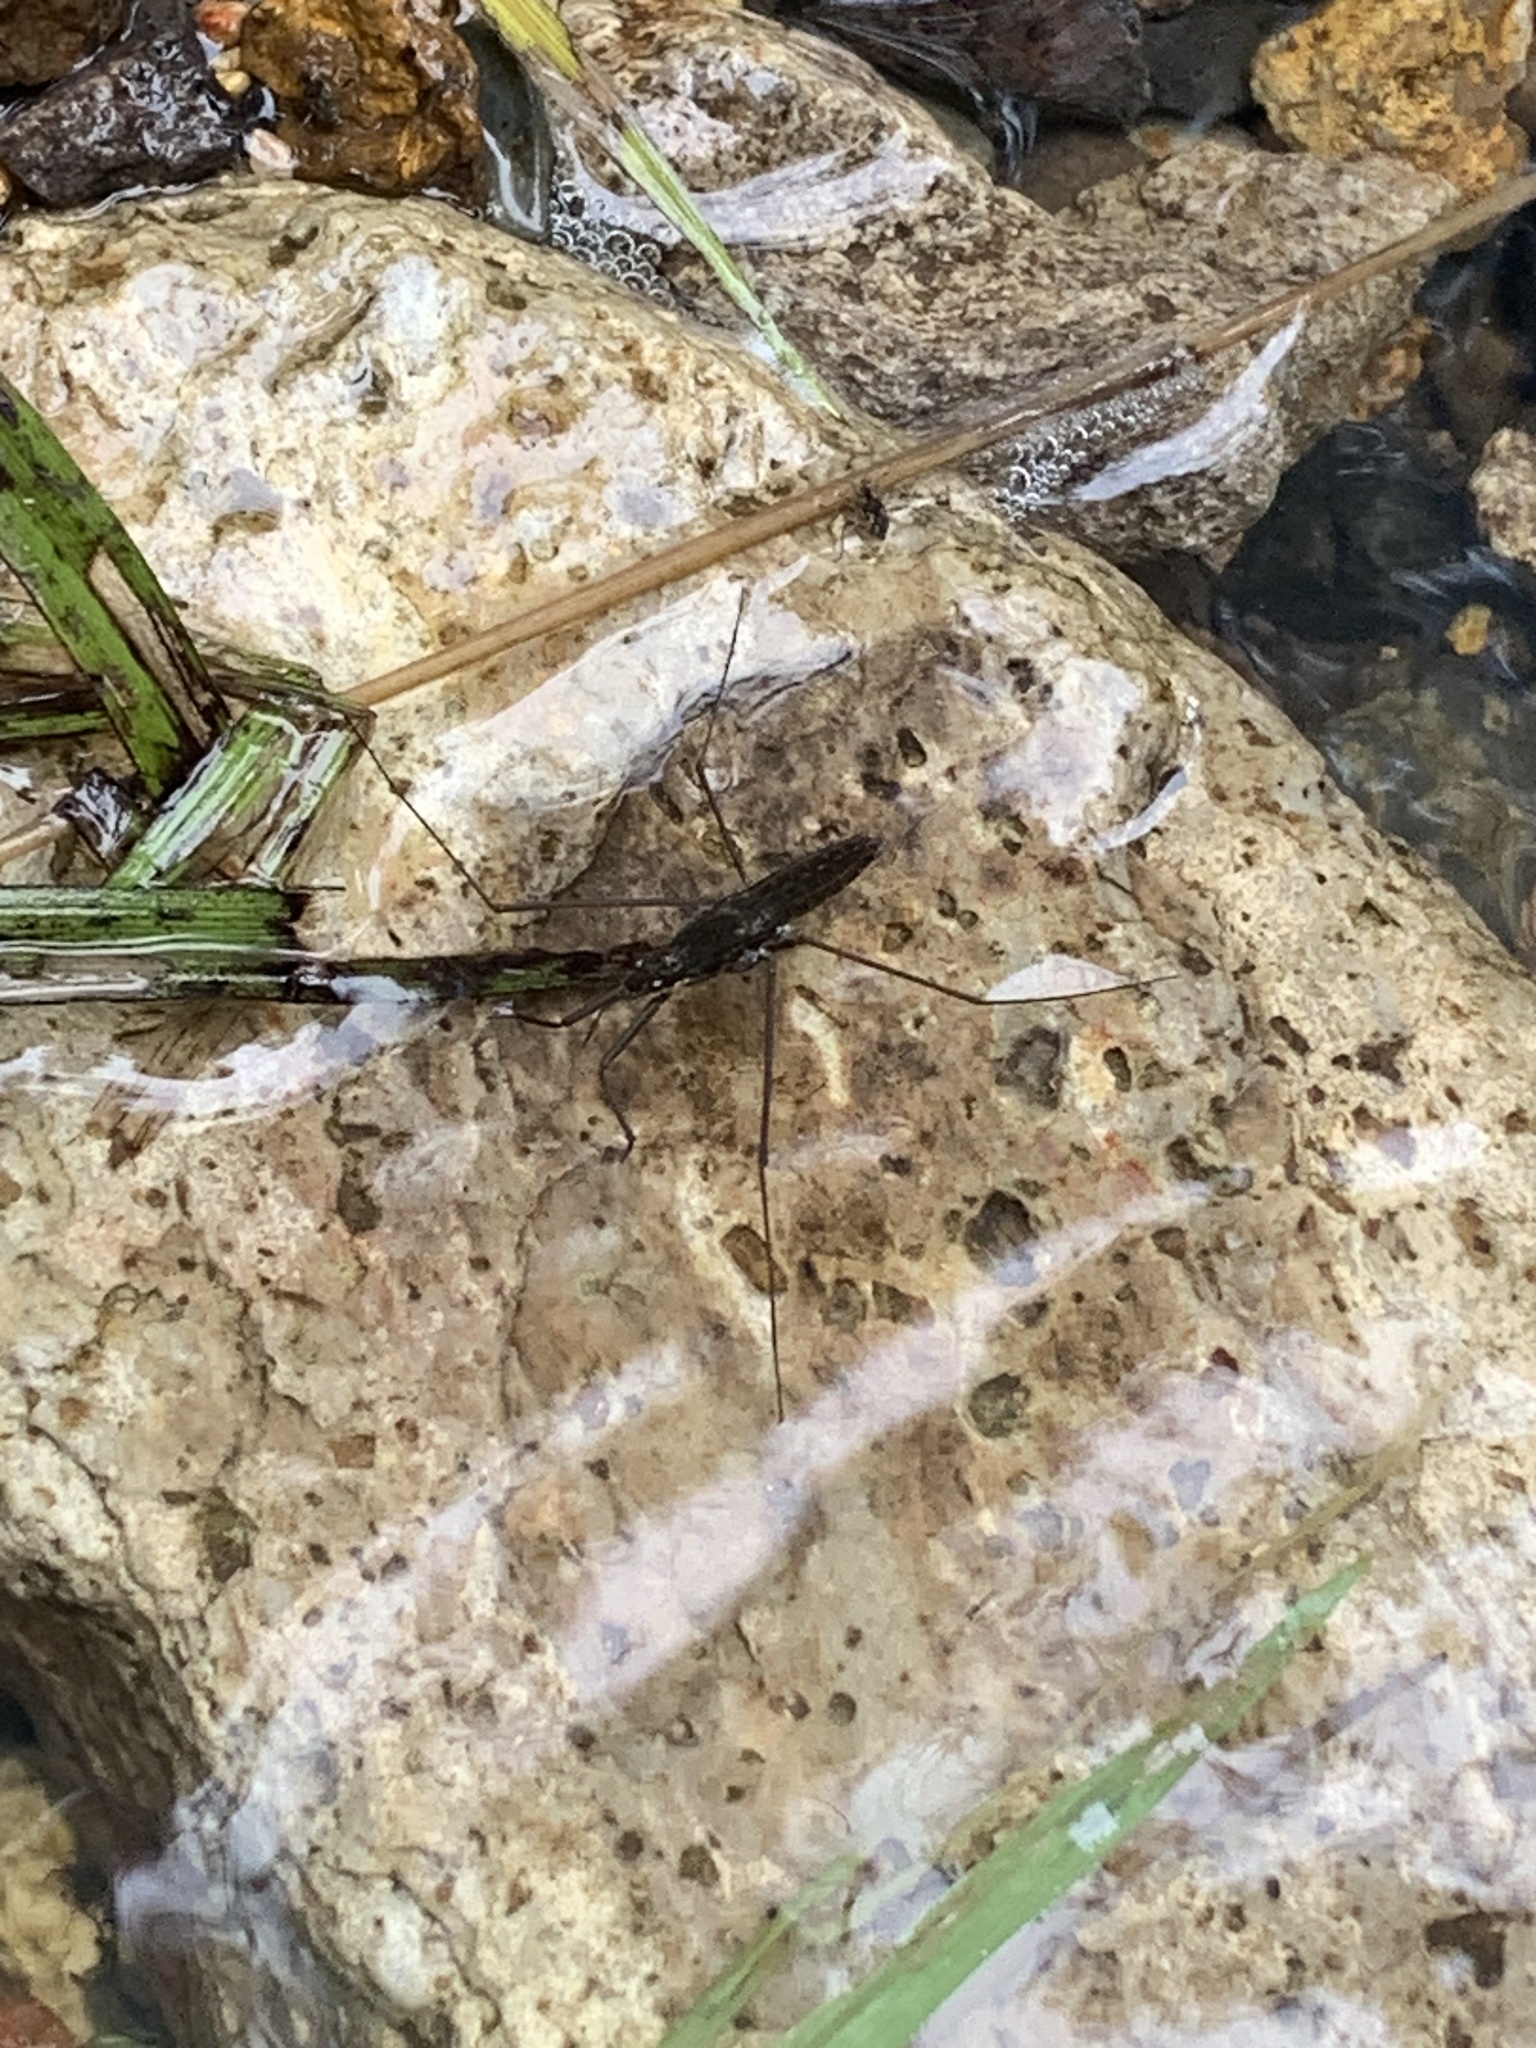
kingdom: Animalia
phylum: Arthropoda
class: Insecta
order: Hemiptera
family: Gerridae
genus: Aquarius
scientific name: Aquarius remigis
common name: Common water strider
